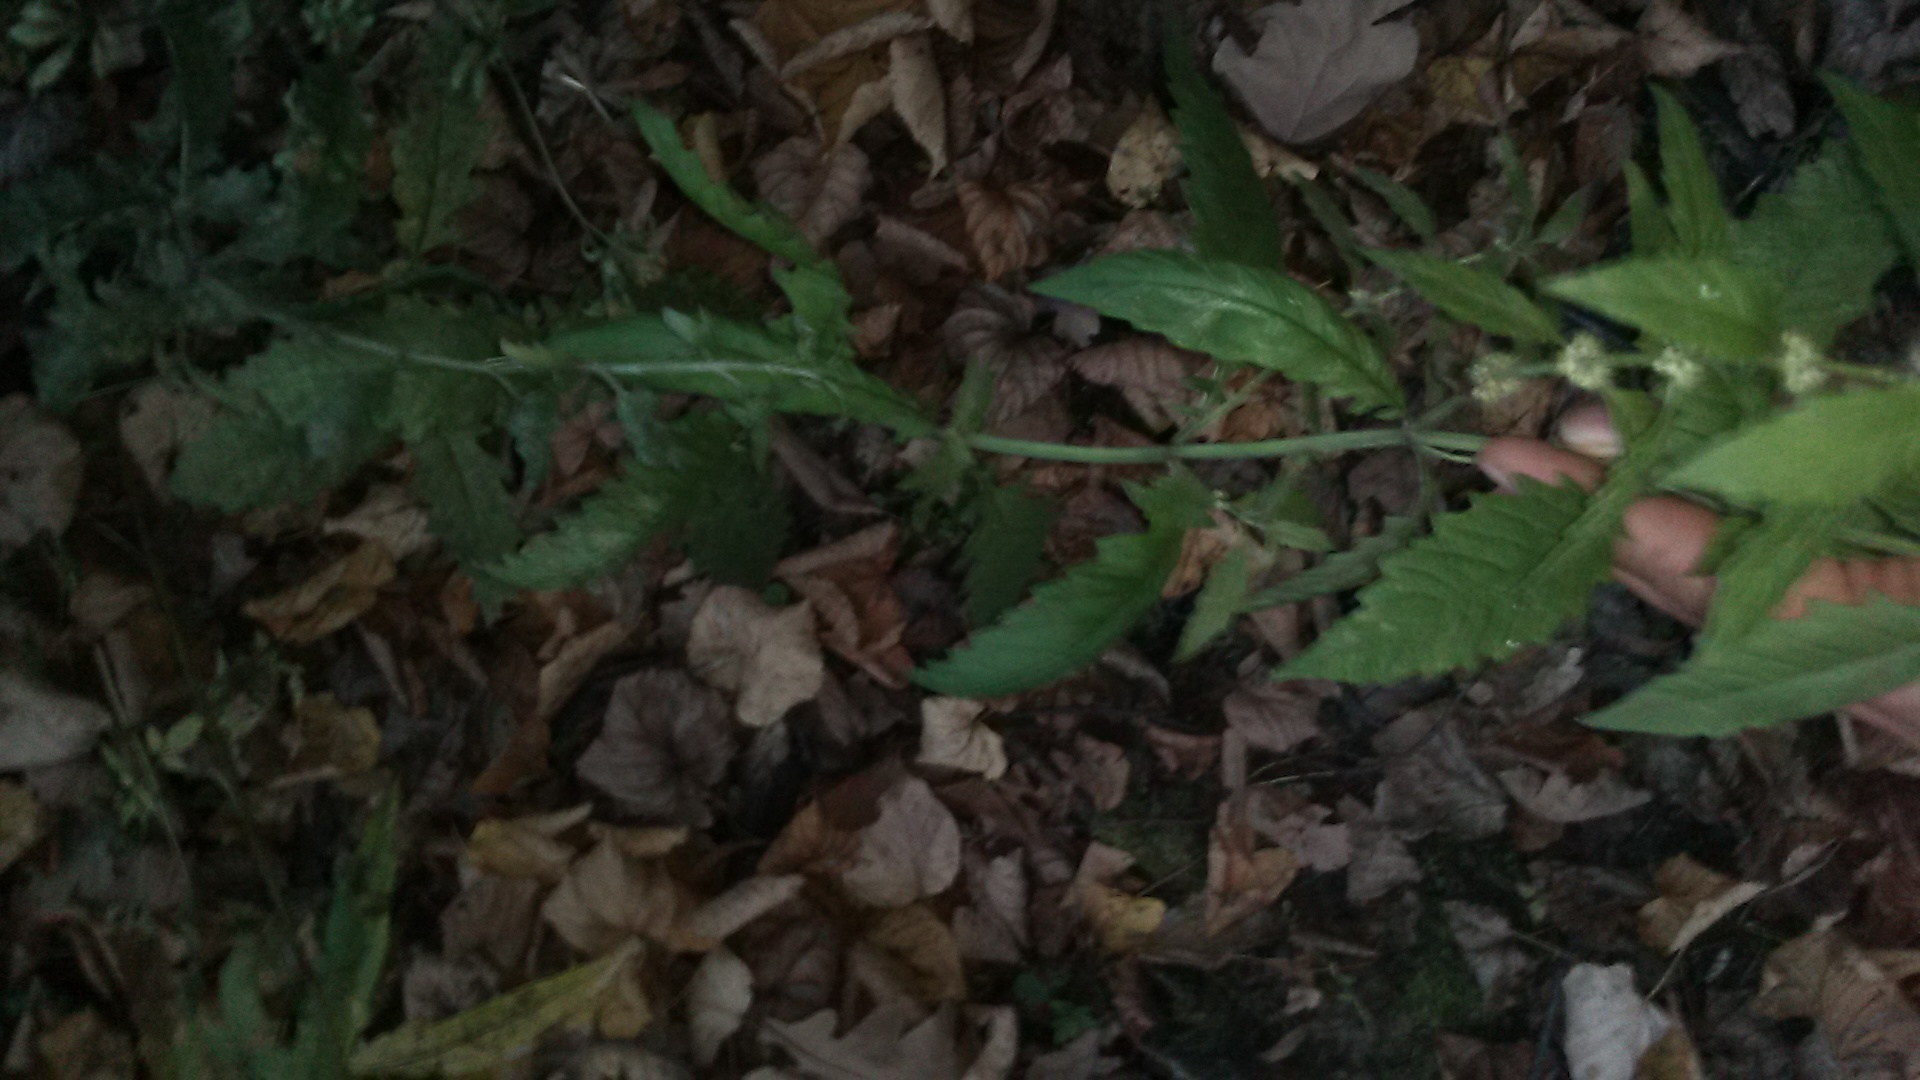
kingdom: Plantae
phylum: Tracheophyta
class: Magnoliopsida
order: Lamiales
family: Lamiaceae
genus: Lycopus
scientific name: Lycopus europaeus
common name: European bugleweed
